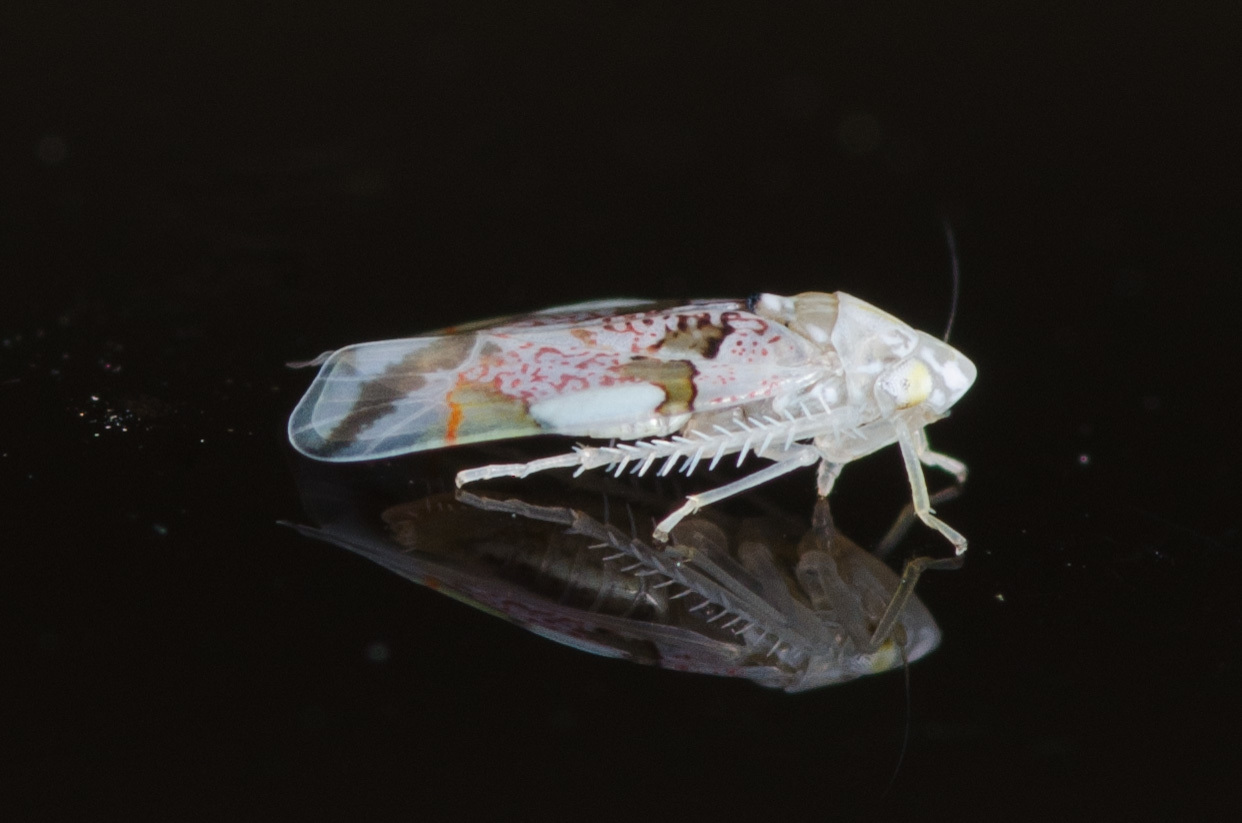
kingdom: Animalia
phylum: Arthropoda
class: Insecta
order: Hemiptera
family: Cicadellidae
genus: Hymetta
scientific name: Hymetta trifasciata
